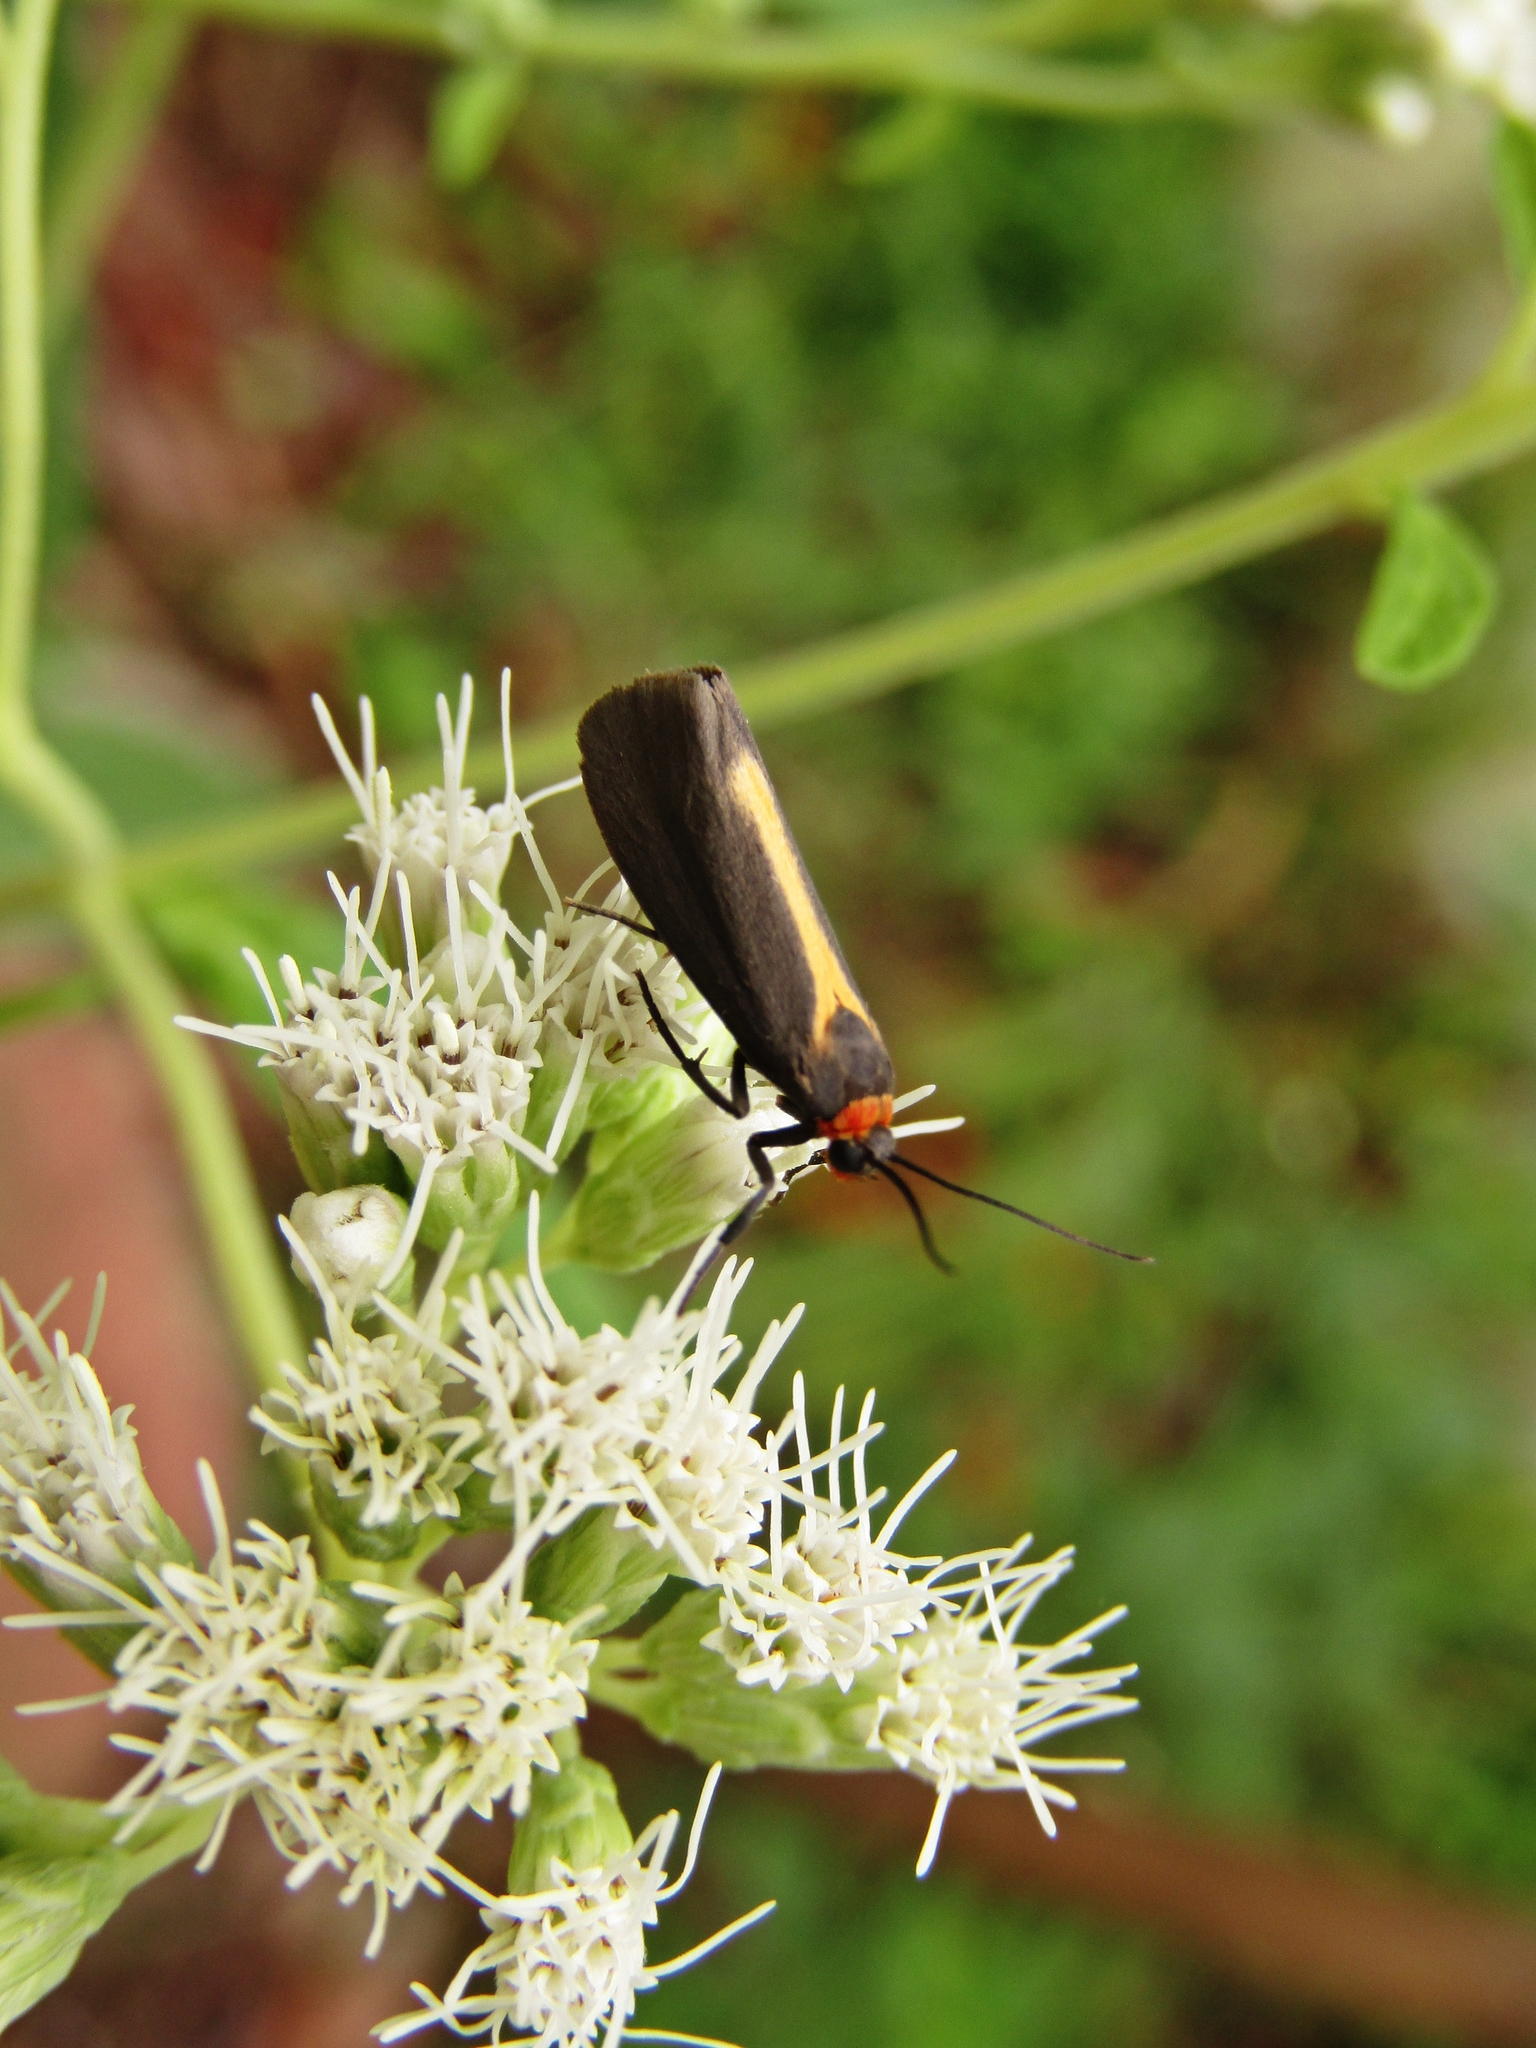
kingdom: Animalia
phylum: Arthropoda
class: Insecta
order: Lepidoptera
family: Erebidae
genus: Cisthene
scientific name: Cisthene flagrans
